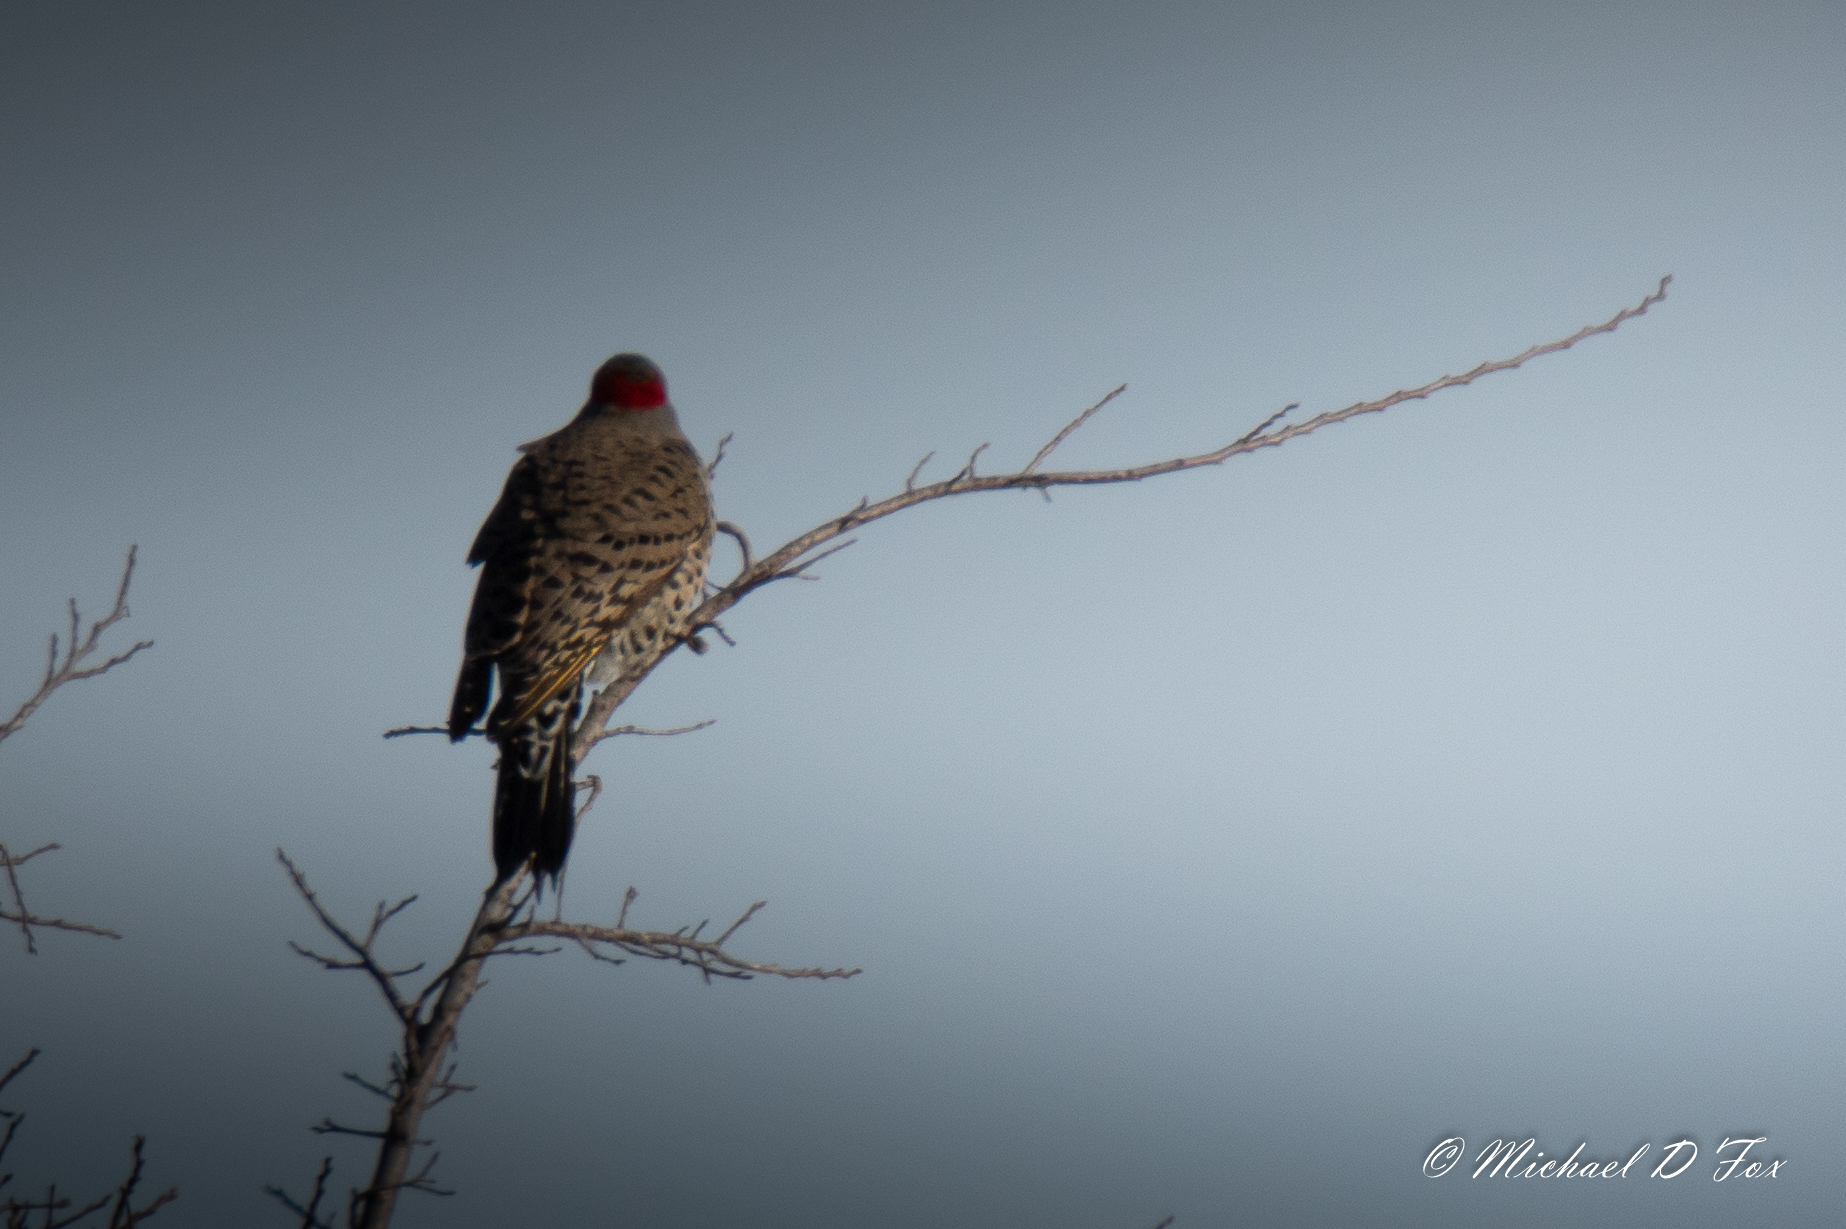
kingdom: Animalia
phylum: Chordata
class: Aves
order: Piciformes
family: Picidae
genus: Colaptes
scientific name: Colaptes auratus
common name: Northern flicker
